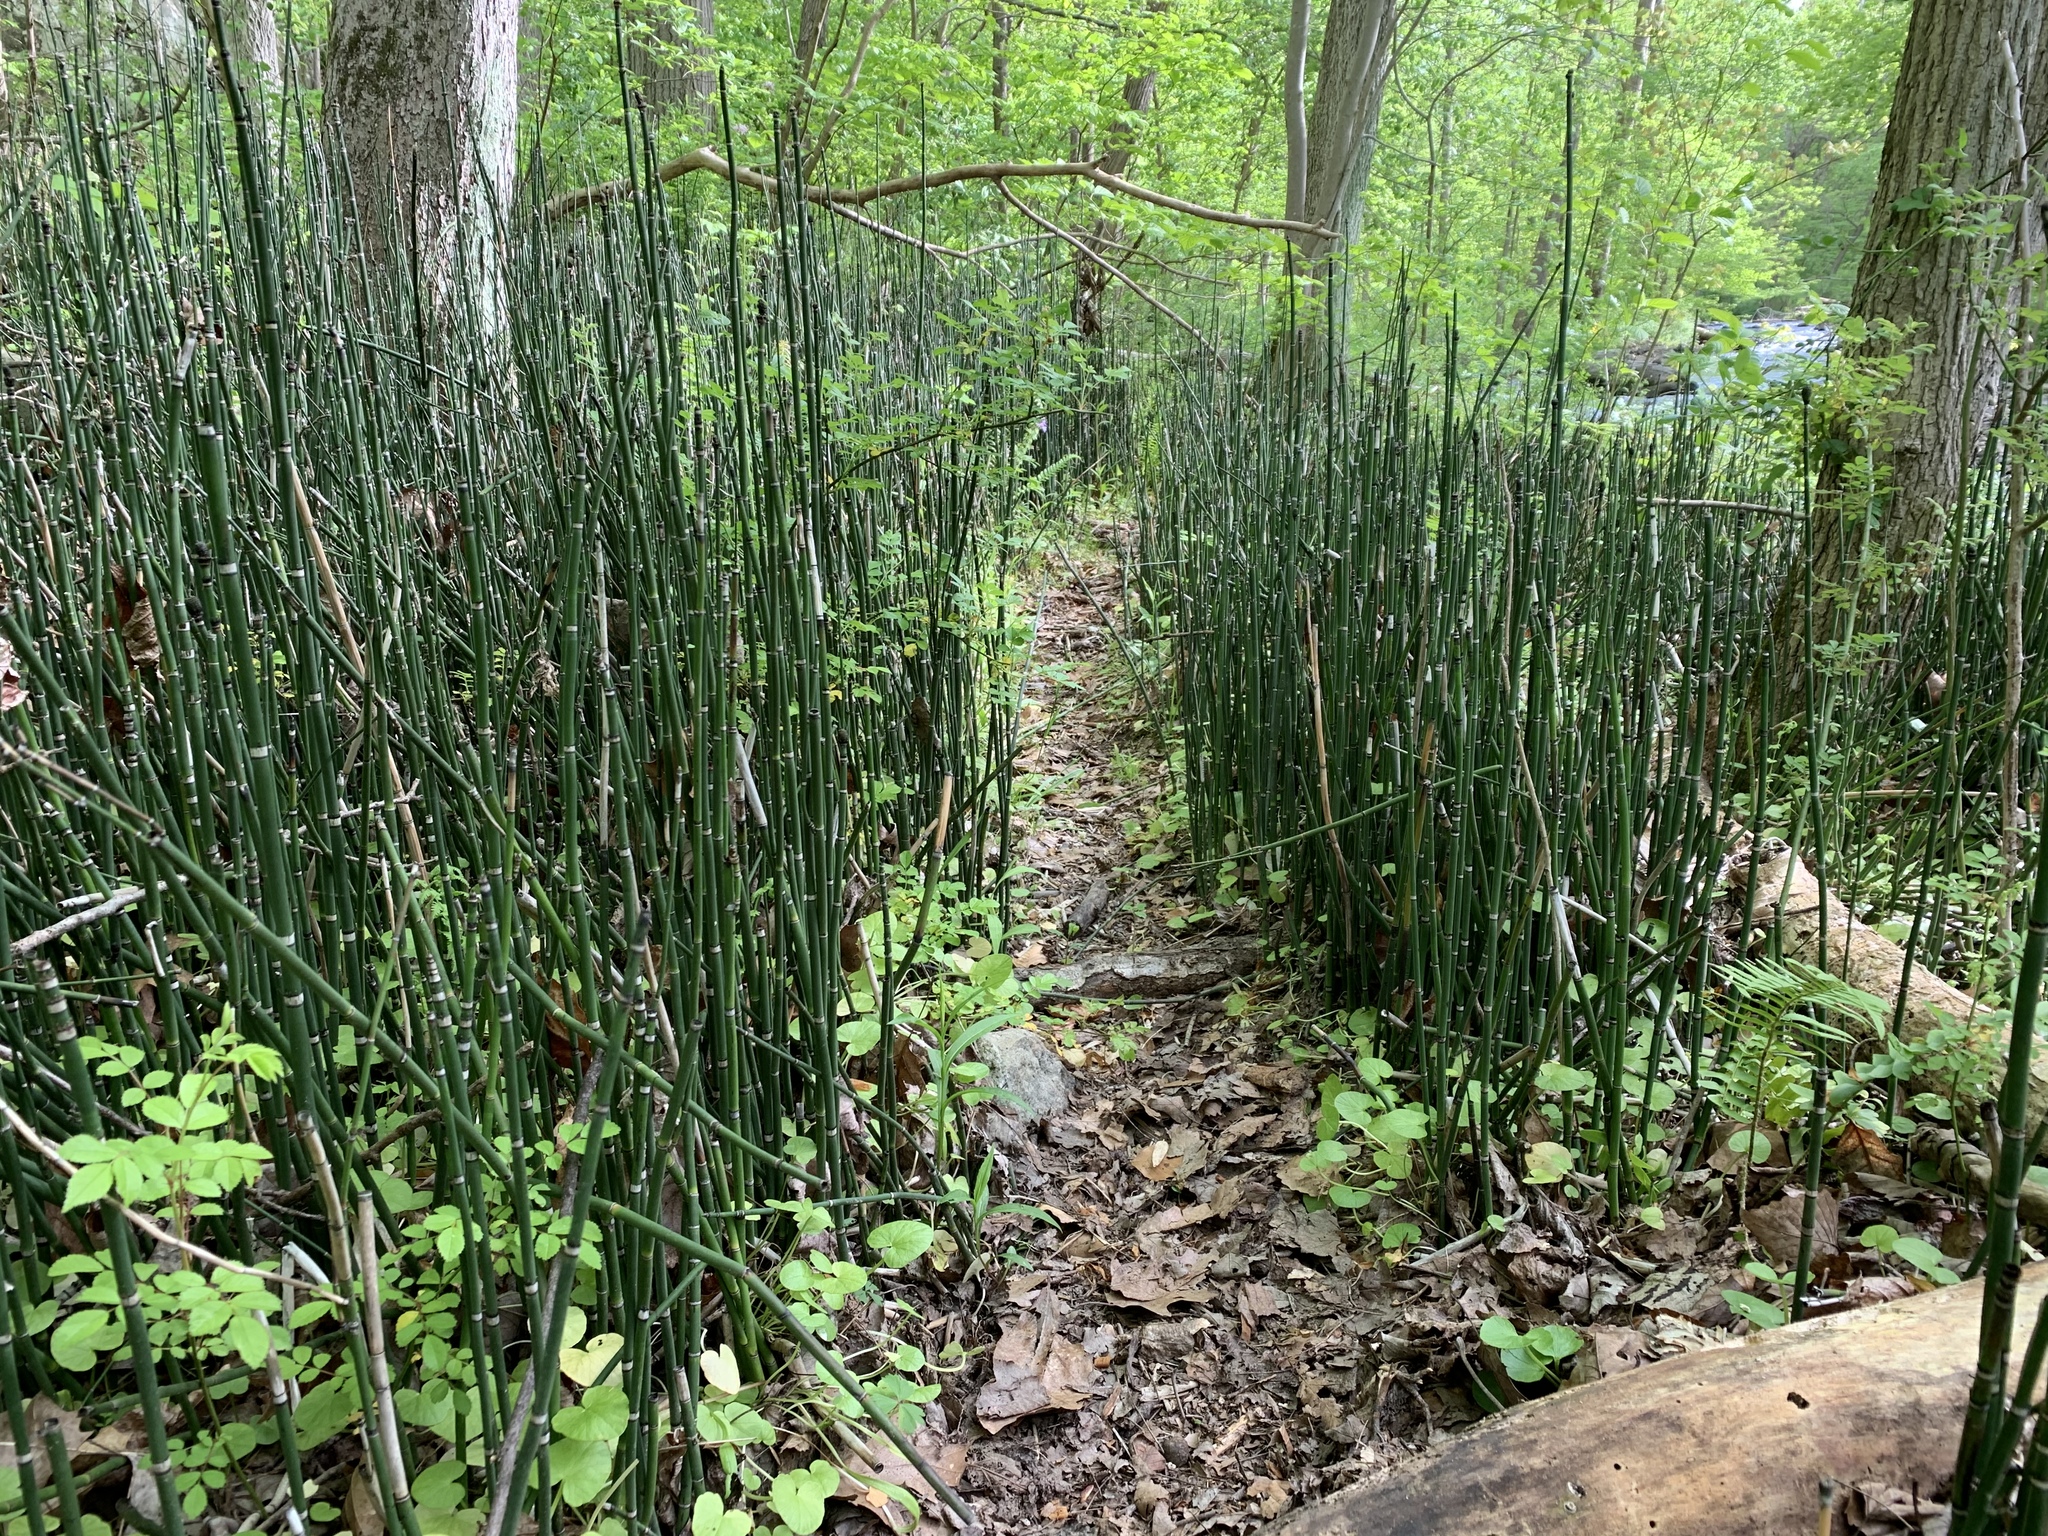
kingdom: Plantae
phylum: Tracheophyta
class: Polypodiopsida
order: Equisetales
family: Equisetaceae
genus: Equisetum
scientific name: Equisetum praealtum
